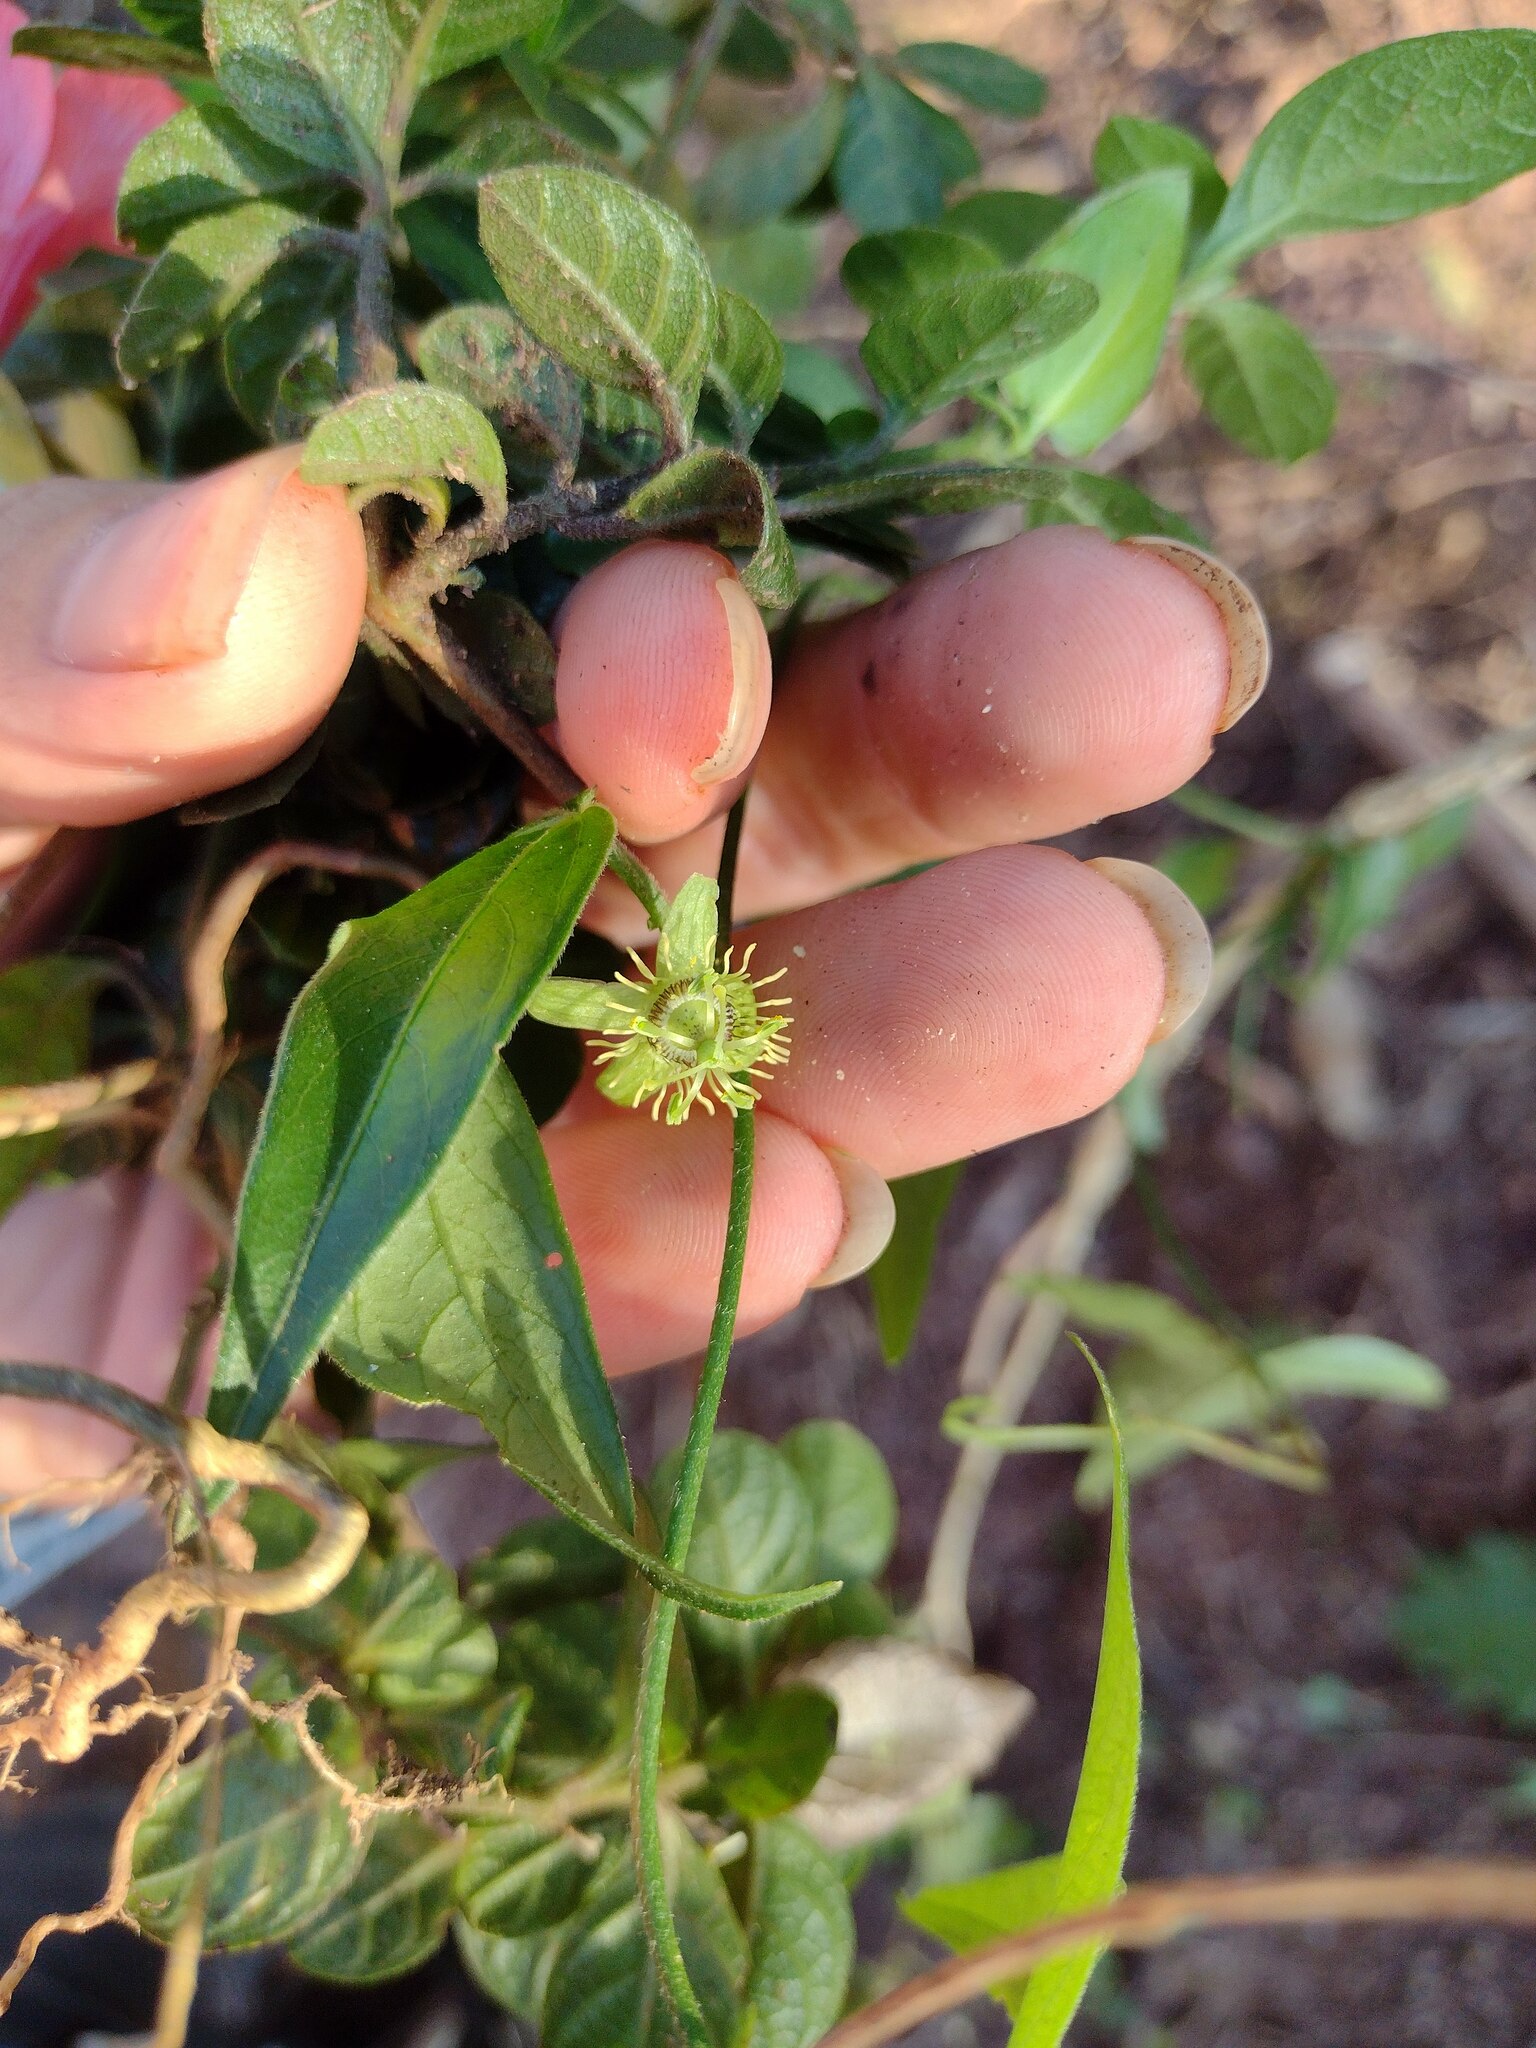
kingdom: Plantae
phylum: Tracheophyta
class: Magnoliopsida
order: Malpighiales
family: Passifloraceae
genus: Passiflora
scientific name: Passiflora suberosa
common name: Wild passionfruit
